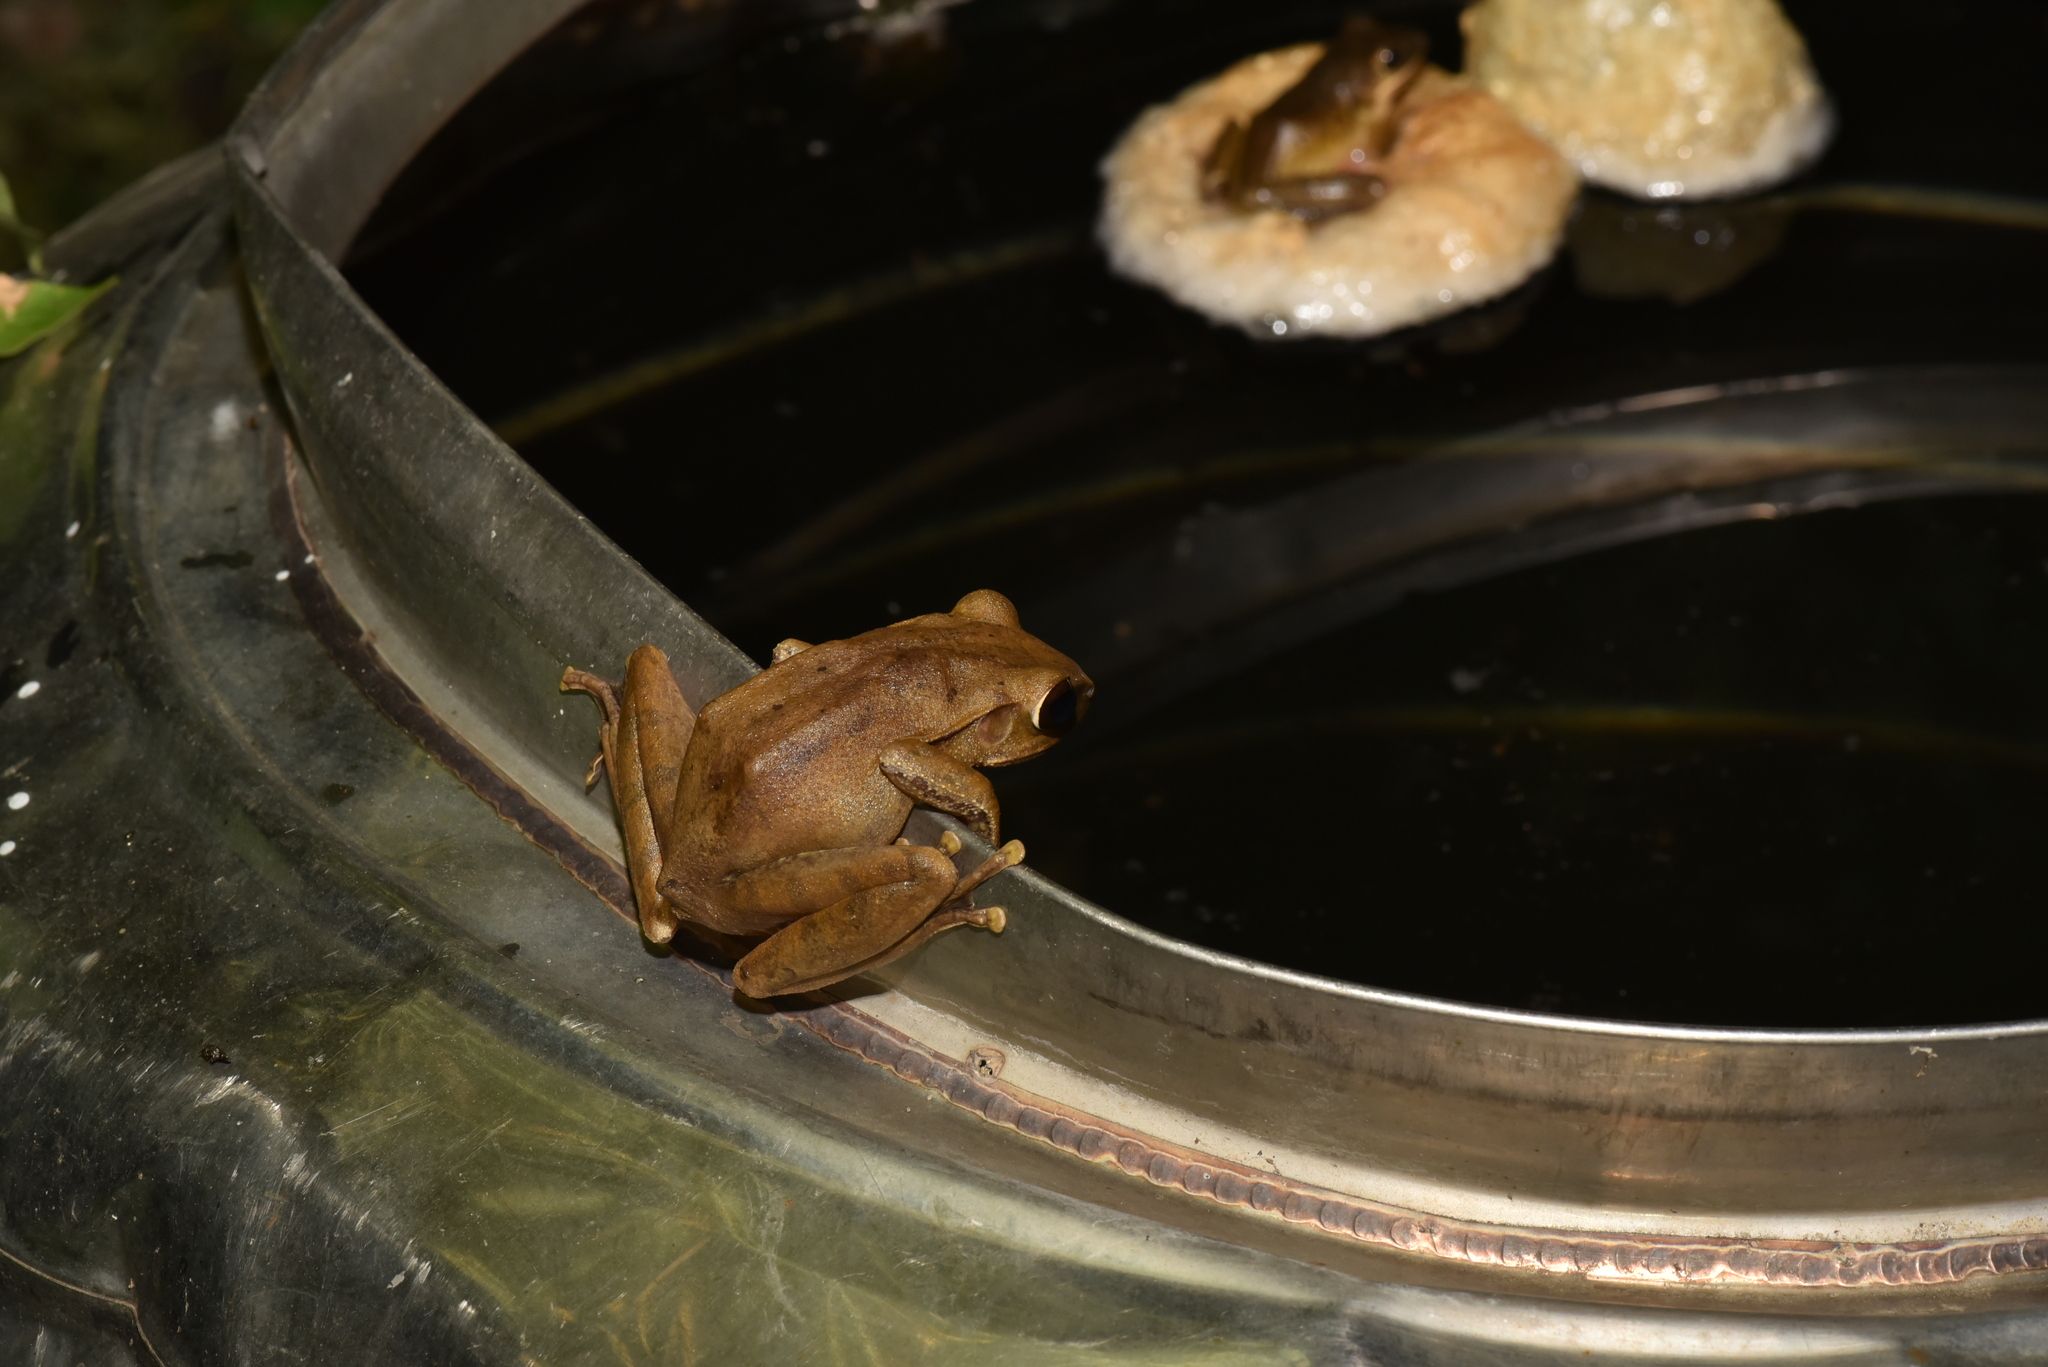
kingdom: Animalia
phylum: Chordata
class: Amphibia
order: Anura
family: Rhacophoridae
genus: Polypedates
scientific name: Polypedates megacephalus
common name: Hong kong whipping frog
